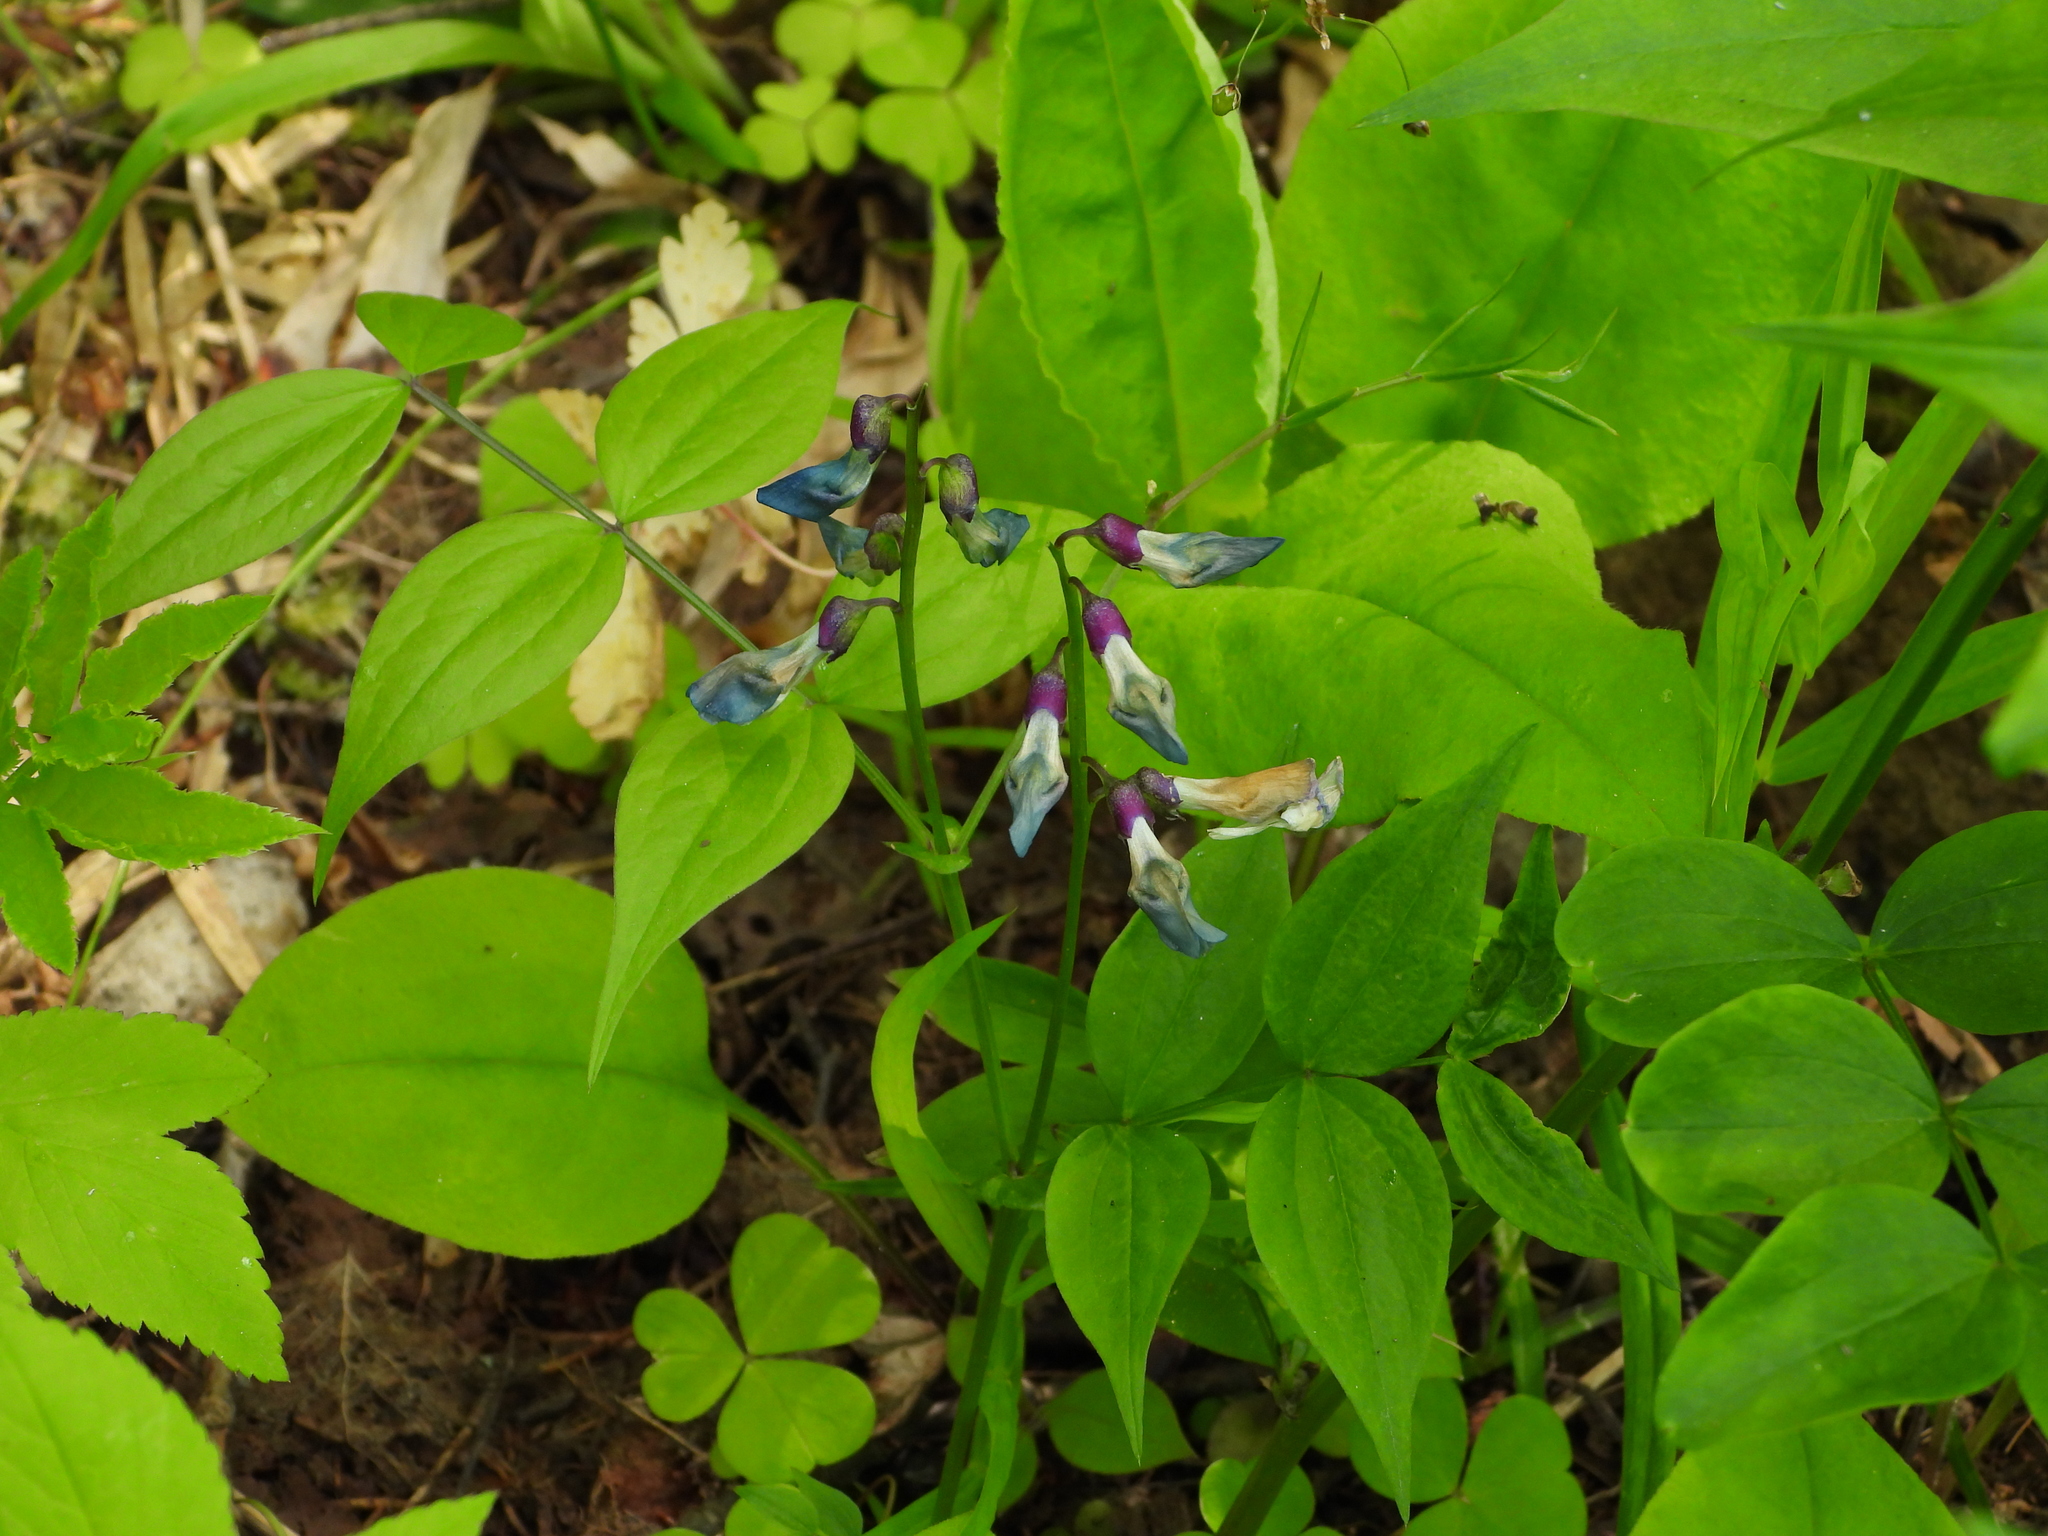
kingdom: Plantae
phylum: Tracheophyta
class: Magnoliopsida
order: Fabales
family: Fabaceae
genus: Lathyrus
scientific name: Lathyrus vernus
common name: Spring pea
